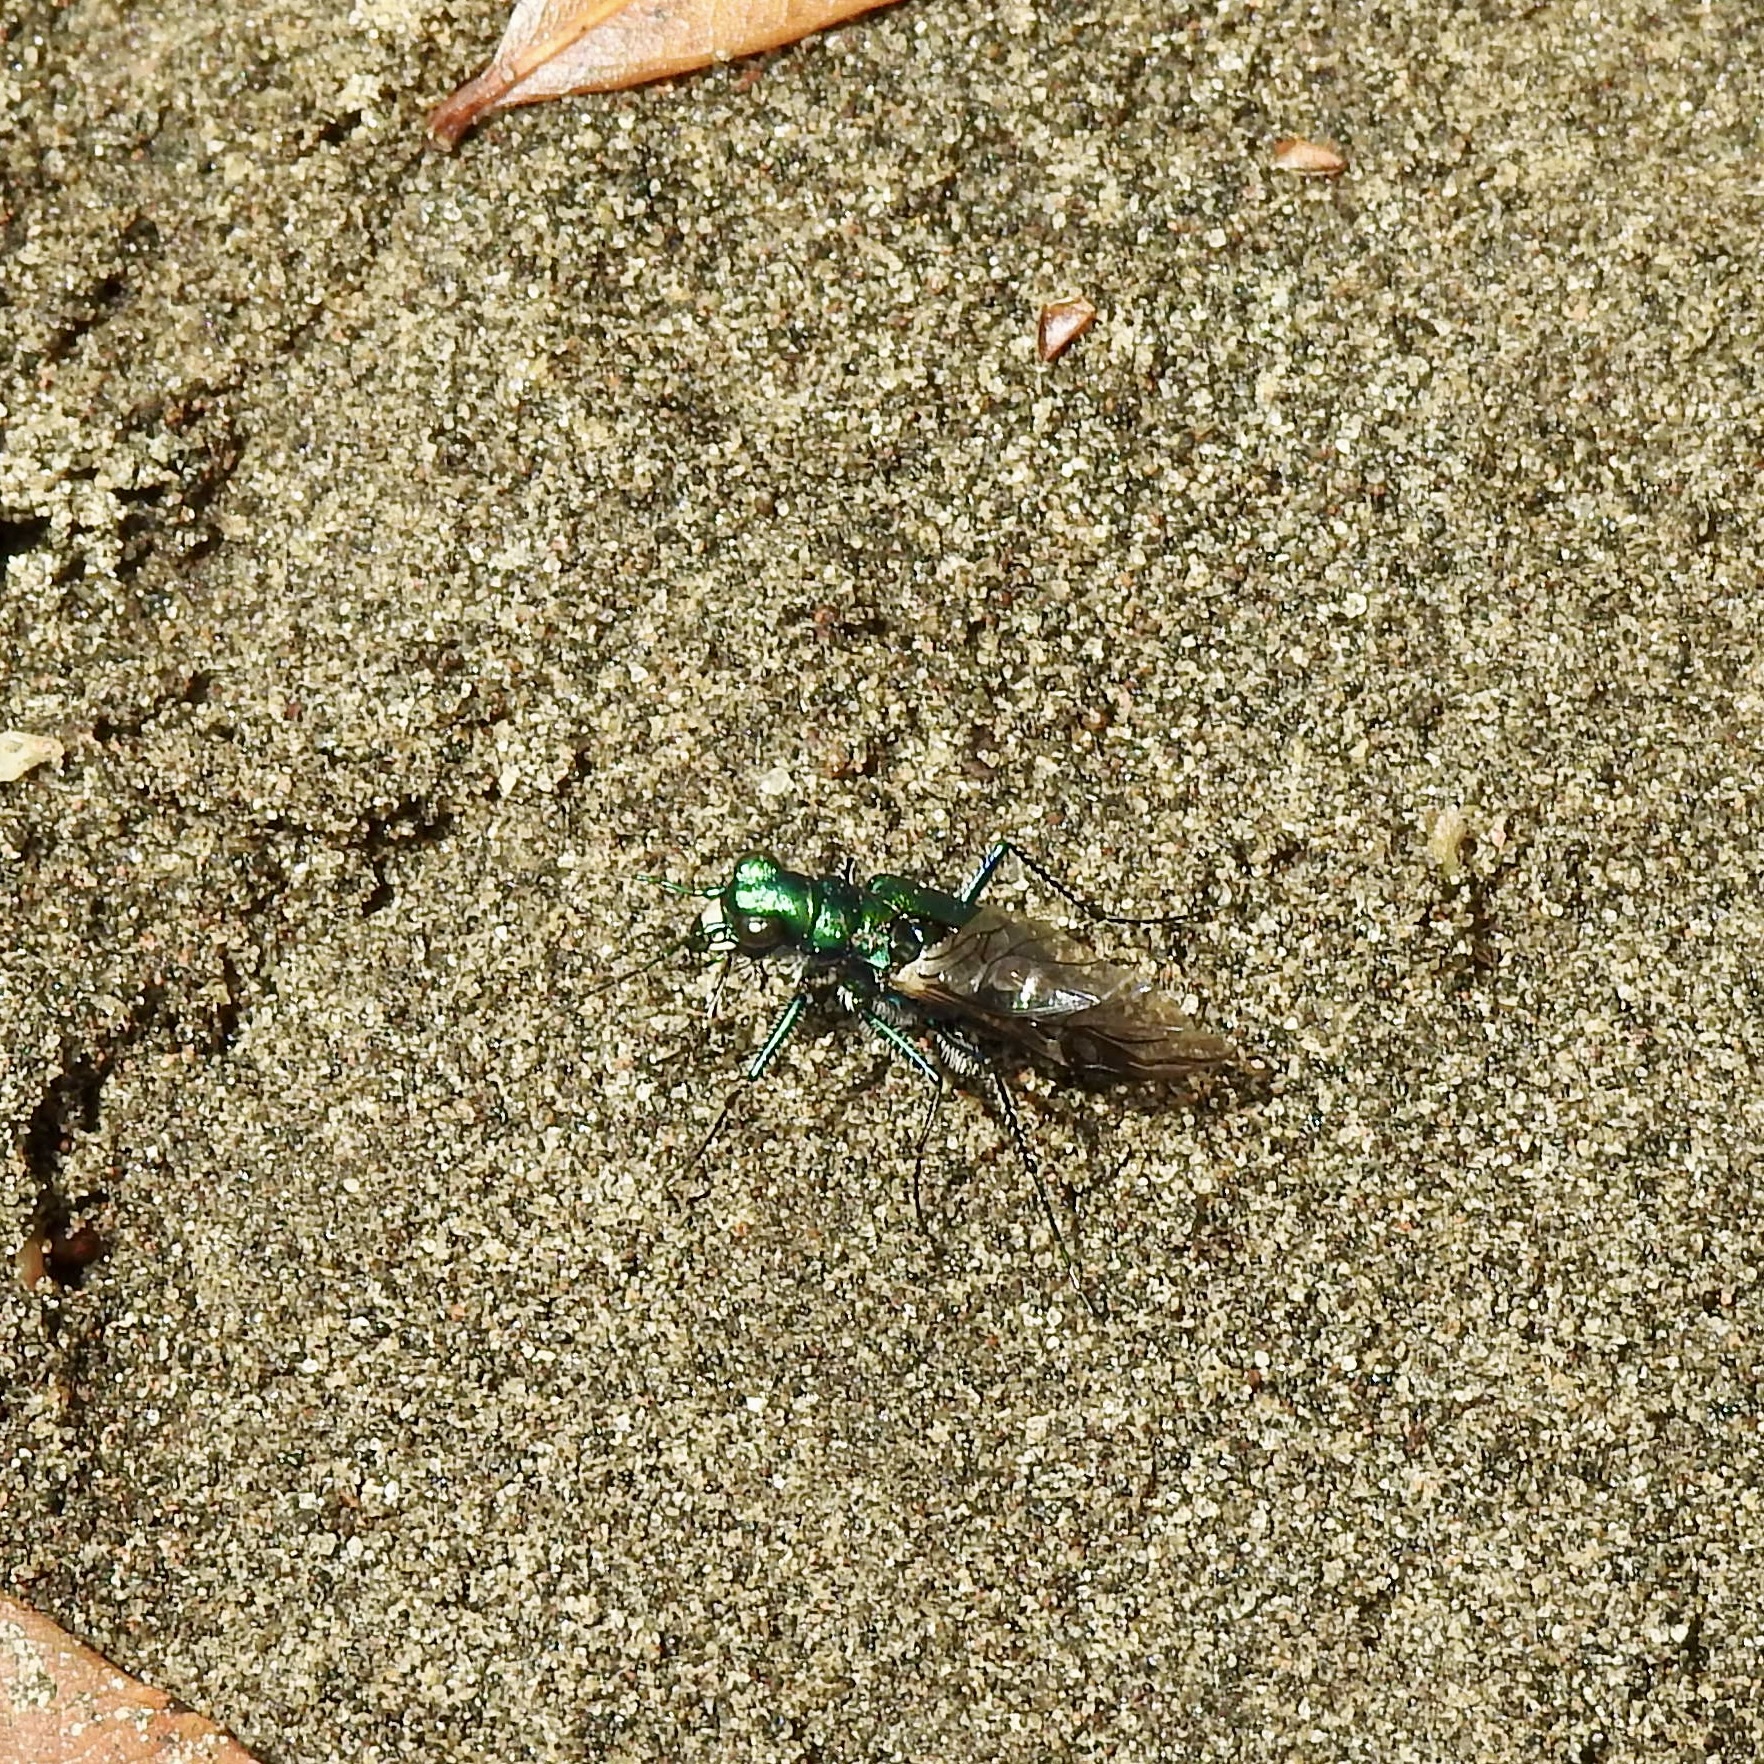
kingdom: Animalia
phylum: Arthropoda
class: Insecta
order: Coleoptera
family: Carabidae
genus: Cicindela
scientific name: Cicindela sexguttata
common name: Six-spotted tiger beetle
